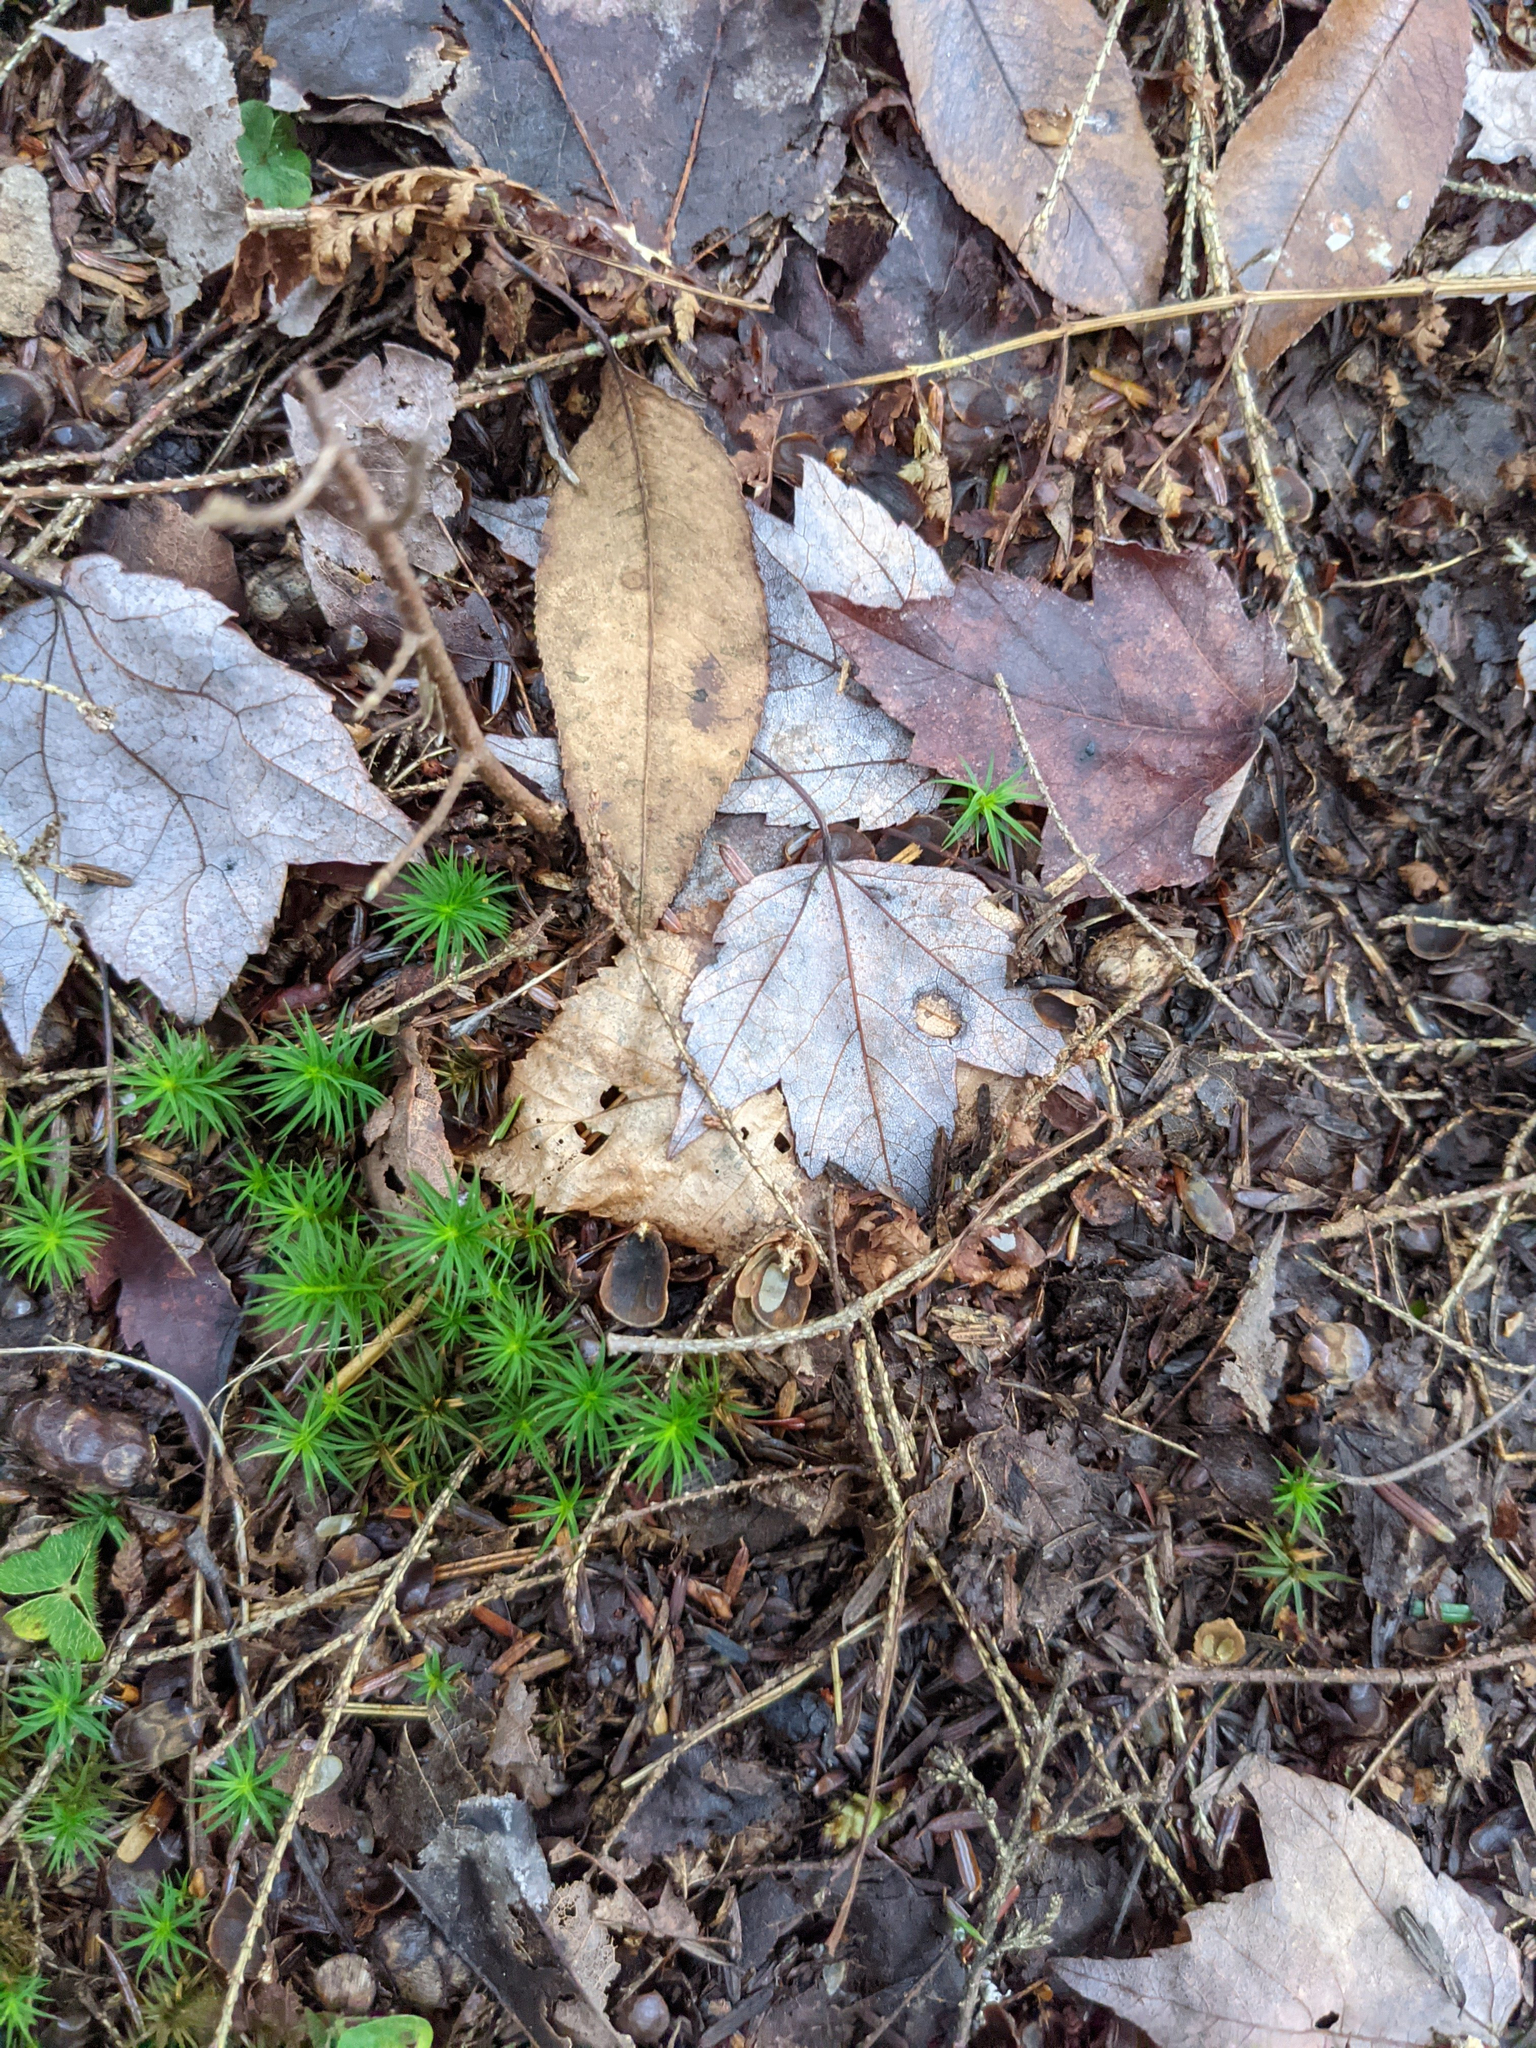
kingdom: Plantae
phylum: Tracheophyta
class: Magnoliopsida
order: Sapindales
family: Sapindaceae
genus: Acer
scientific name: Acer rubrum
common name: Red maple
